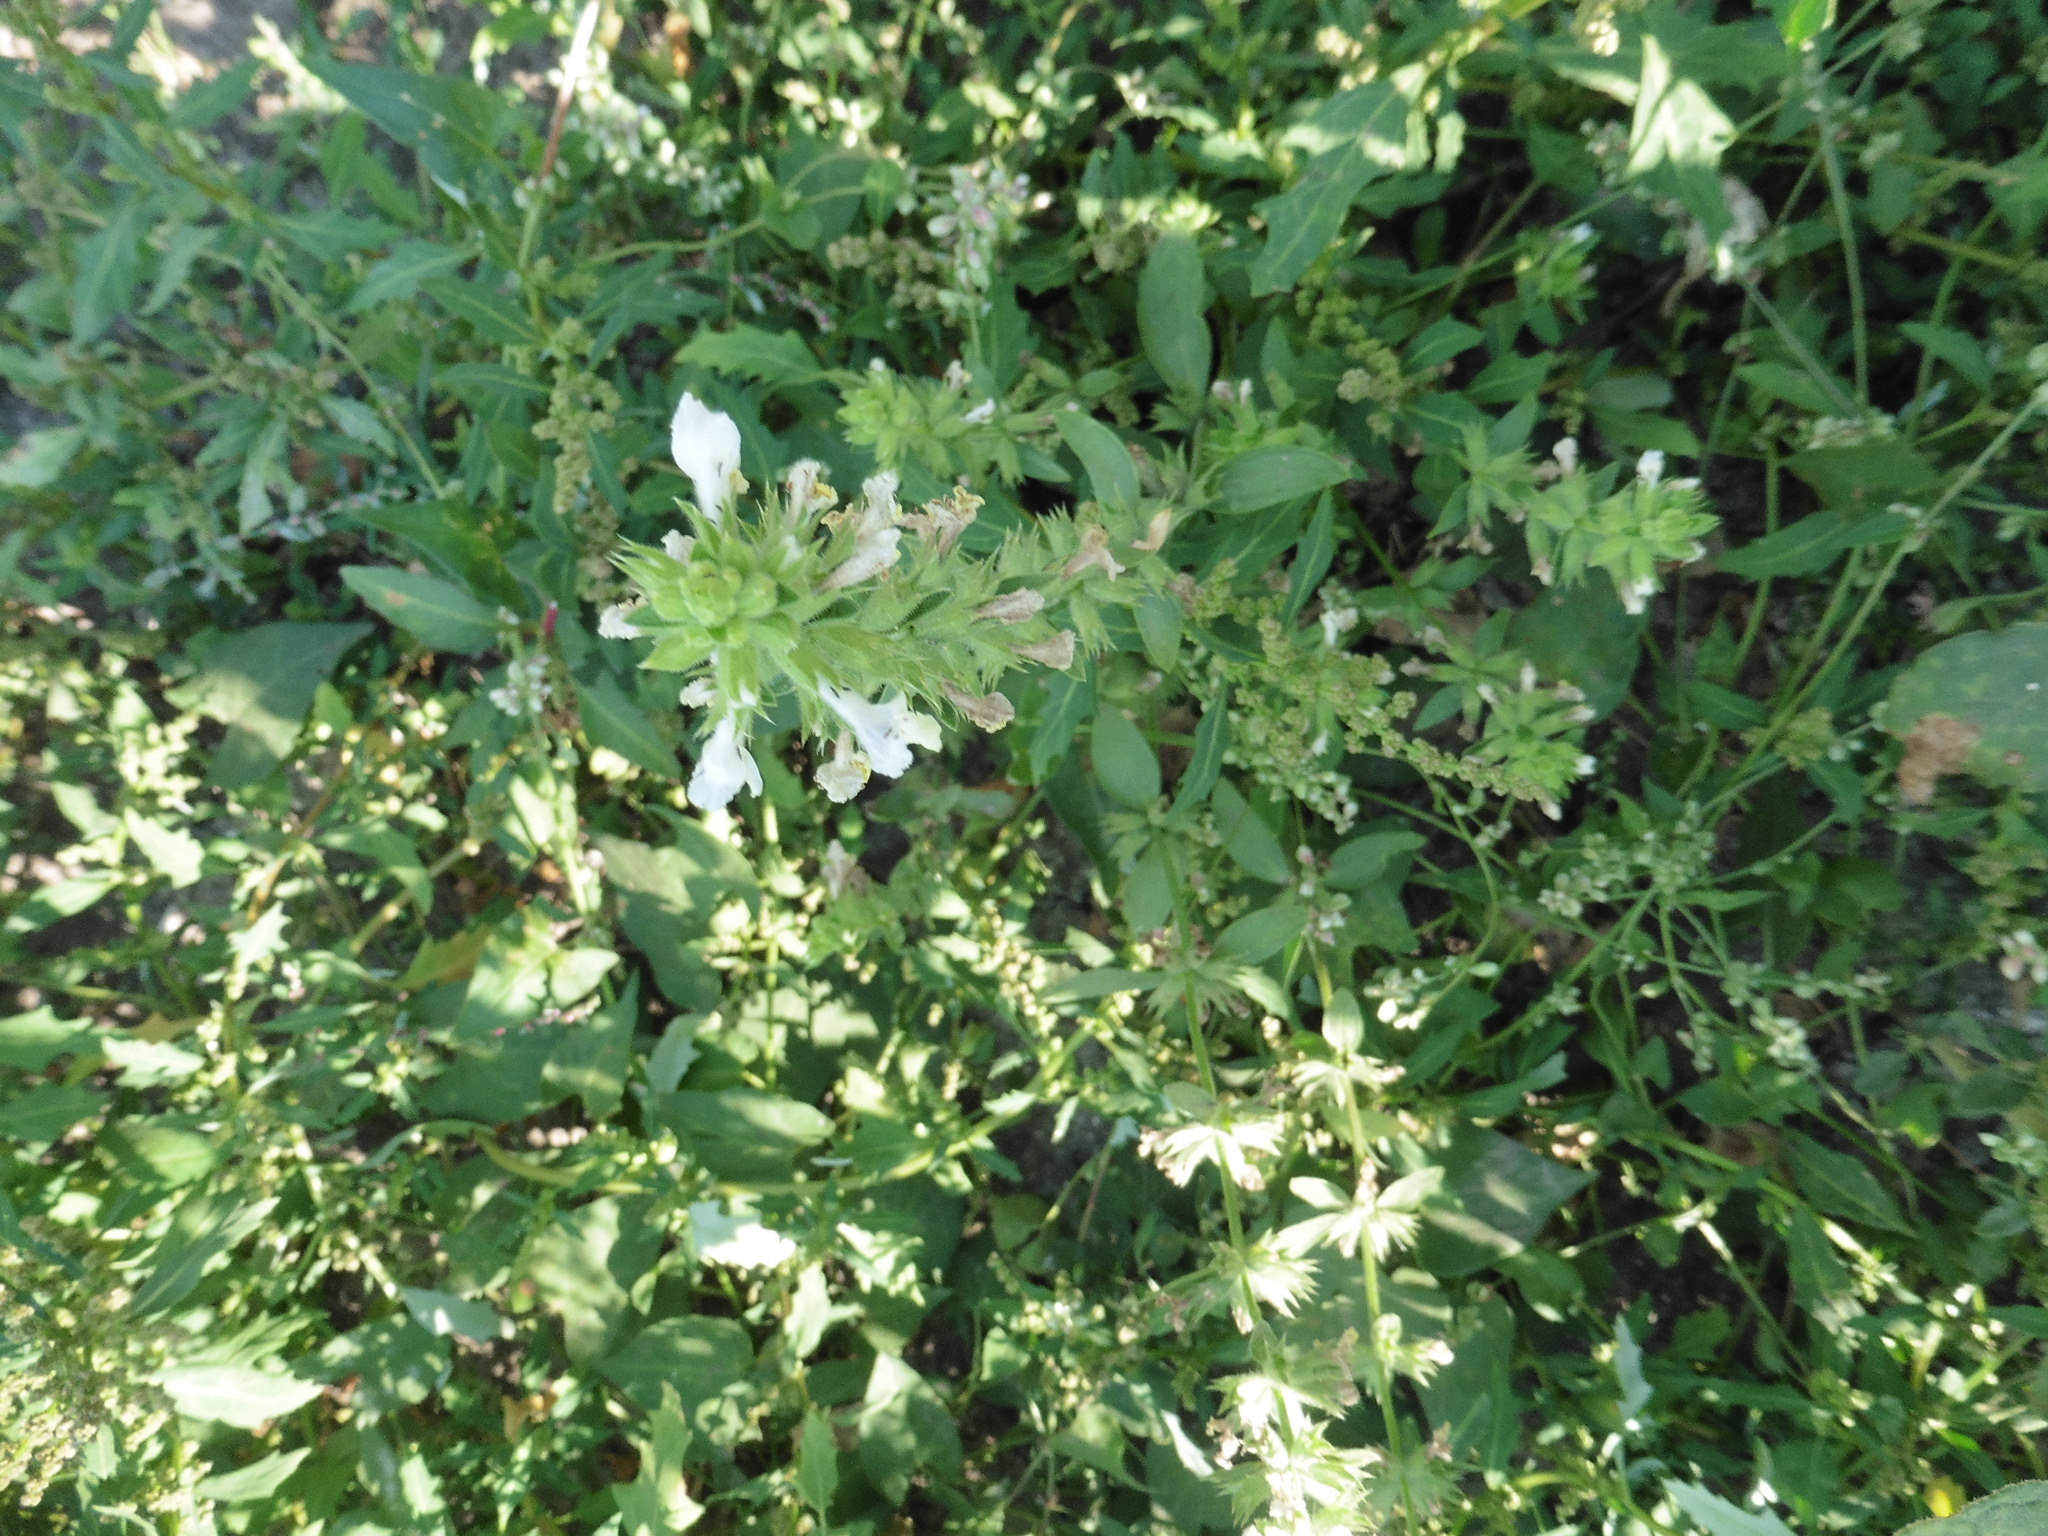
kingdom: Plantae
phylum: Tracheophyta
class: Magnoliopsida
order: Lamiales
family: Lamiaceae
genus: Stachys
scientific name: Stachys annua
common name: Annual yellow-woundwort
